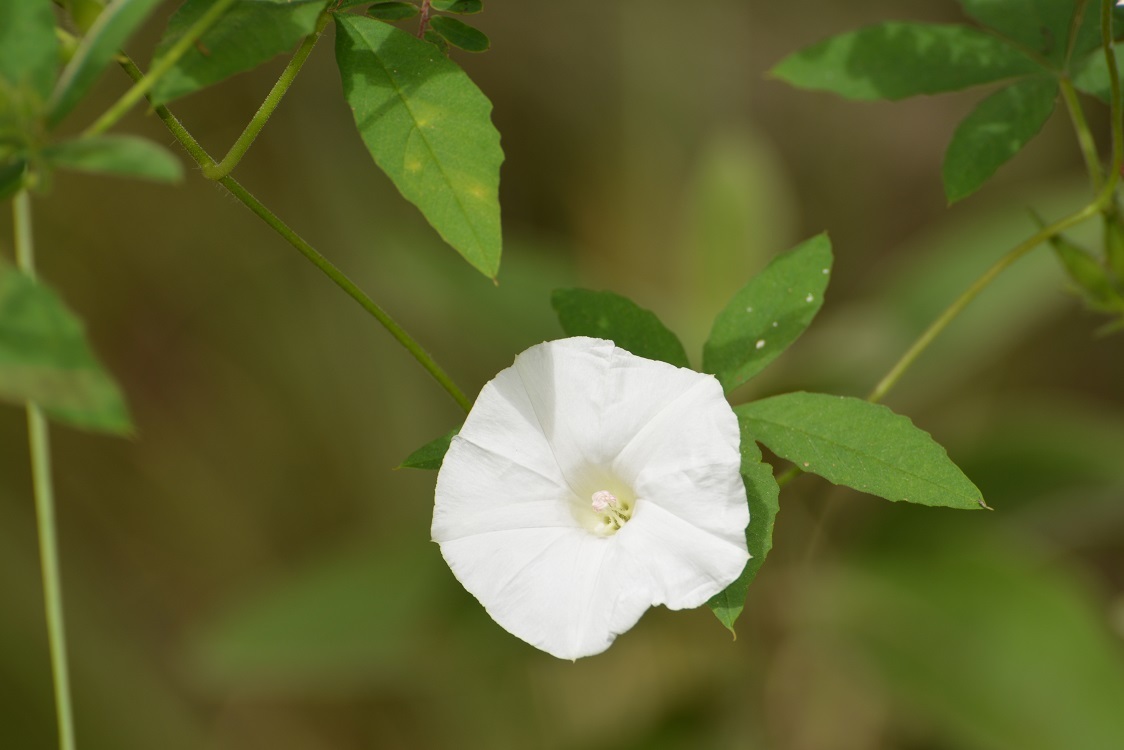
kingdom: Plantae
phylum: Tracheophyta
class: Magnoliopsida
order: Solanales
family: Convolvulaceae
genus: Distimake
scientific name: Distimake cissoides
